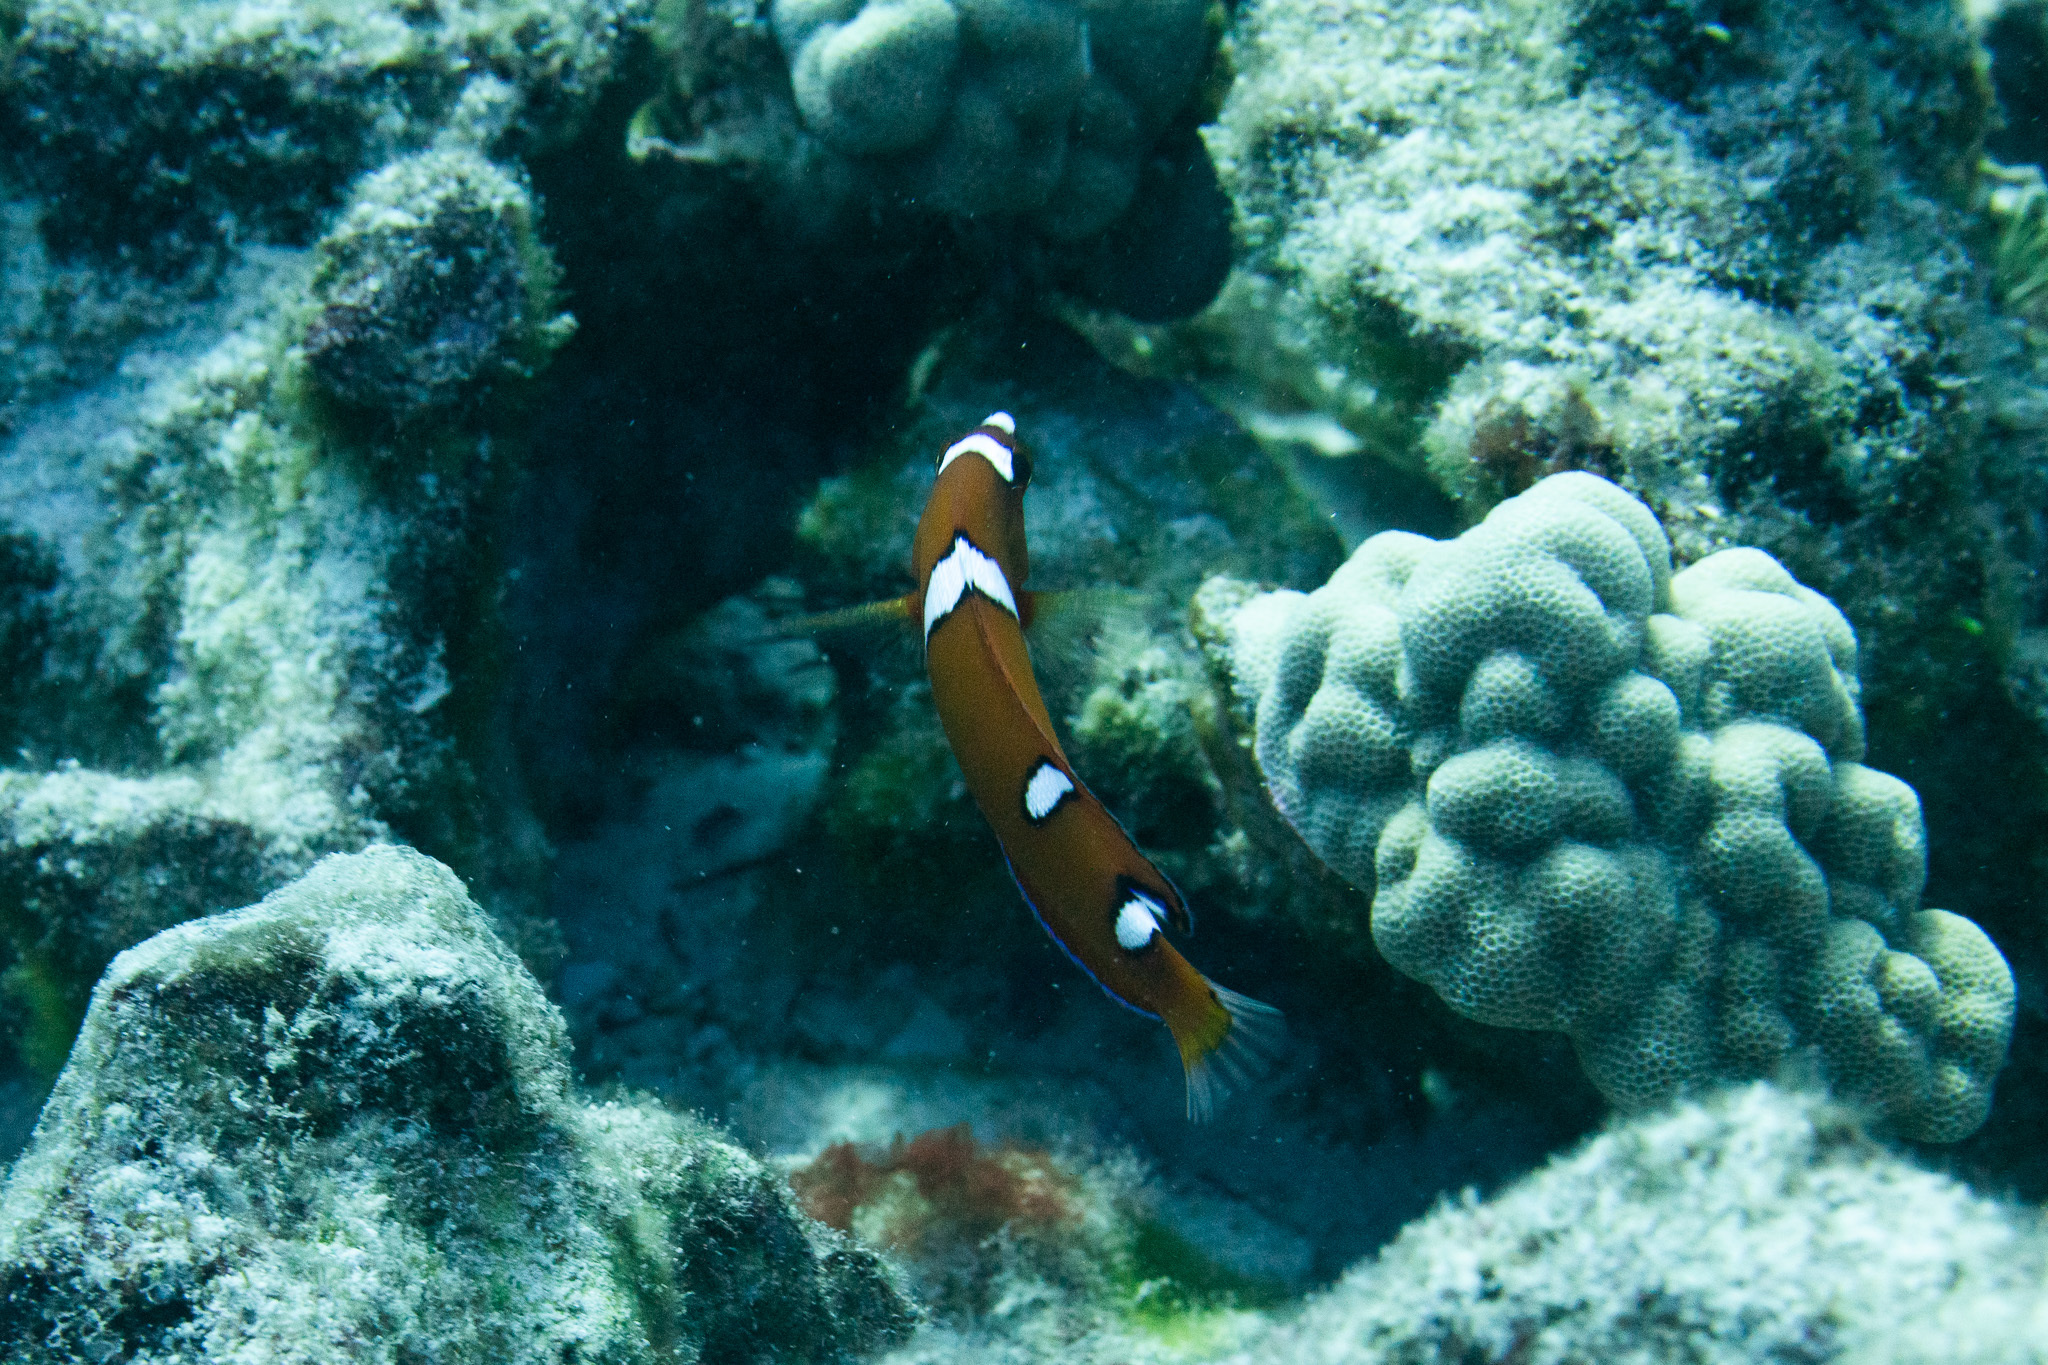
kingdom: Animalia
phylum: Chordata
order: Perciformes
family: Labridae
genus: Coris
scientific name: Coris gaimard
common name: Yellowtail coris
